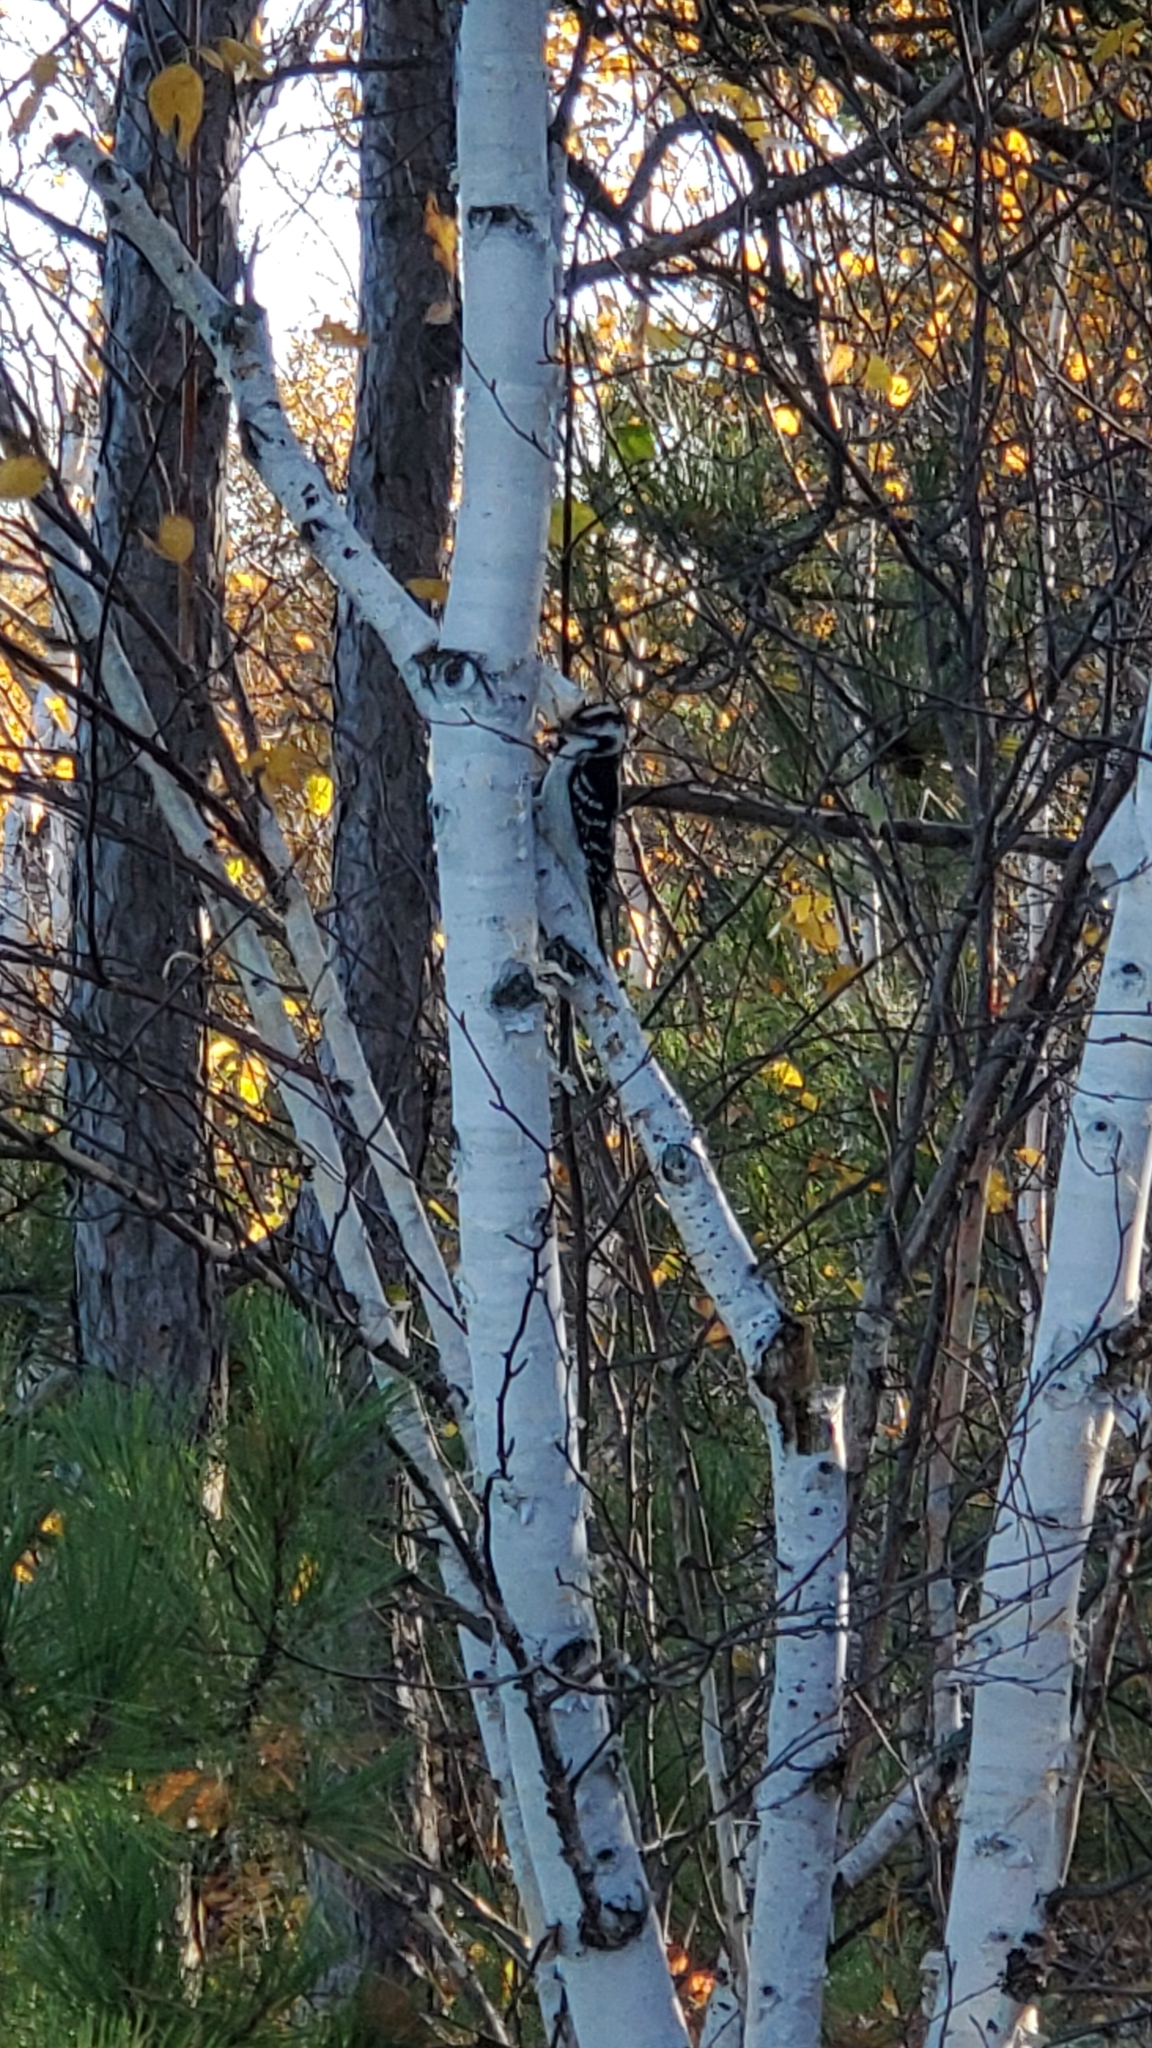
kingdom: Animalia
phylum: Chordata
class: Aves
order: Piciformes
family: Picidae
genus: Leuconotopicus
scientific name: Leuconotopicus villosus
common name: Hairy woodpecker
